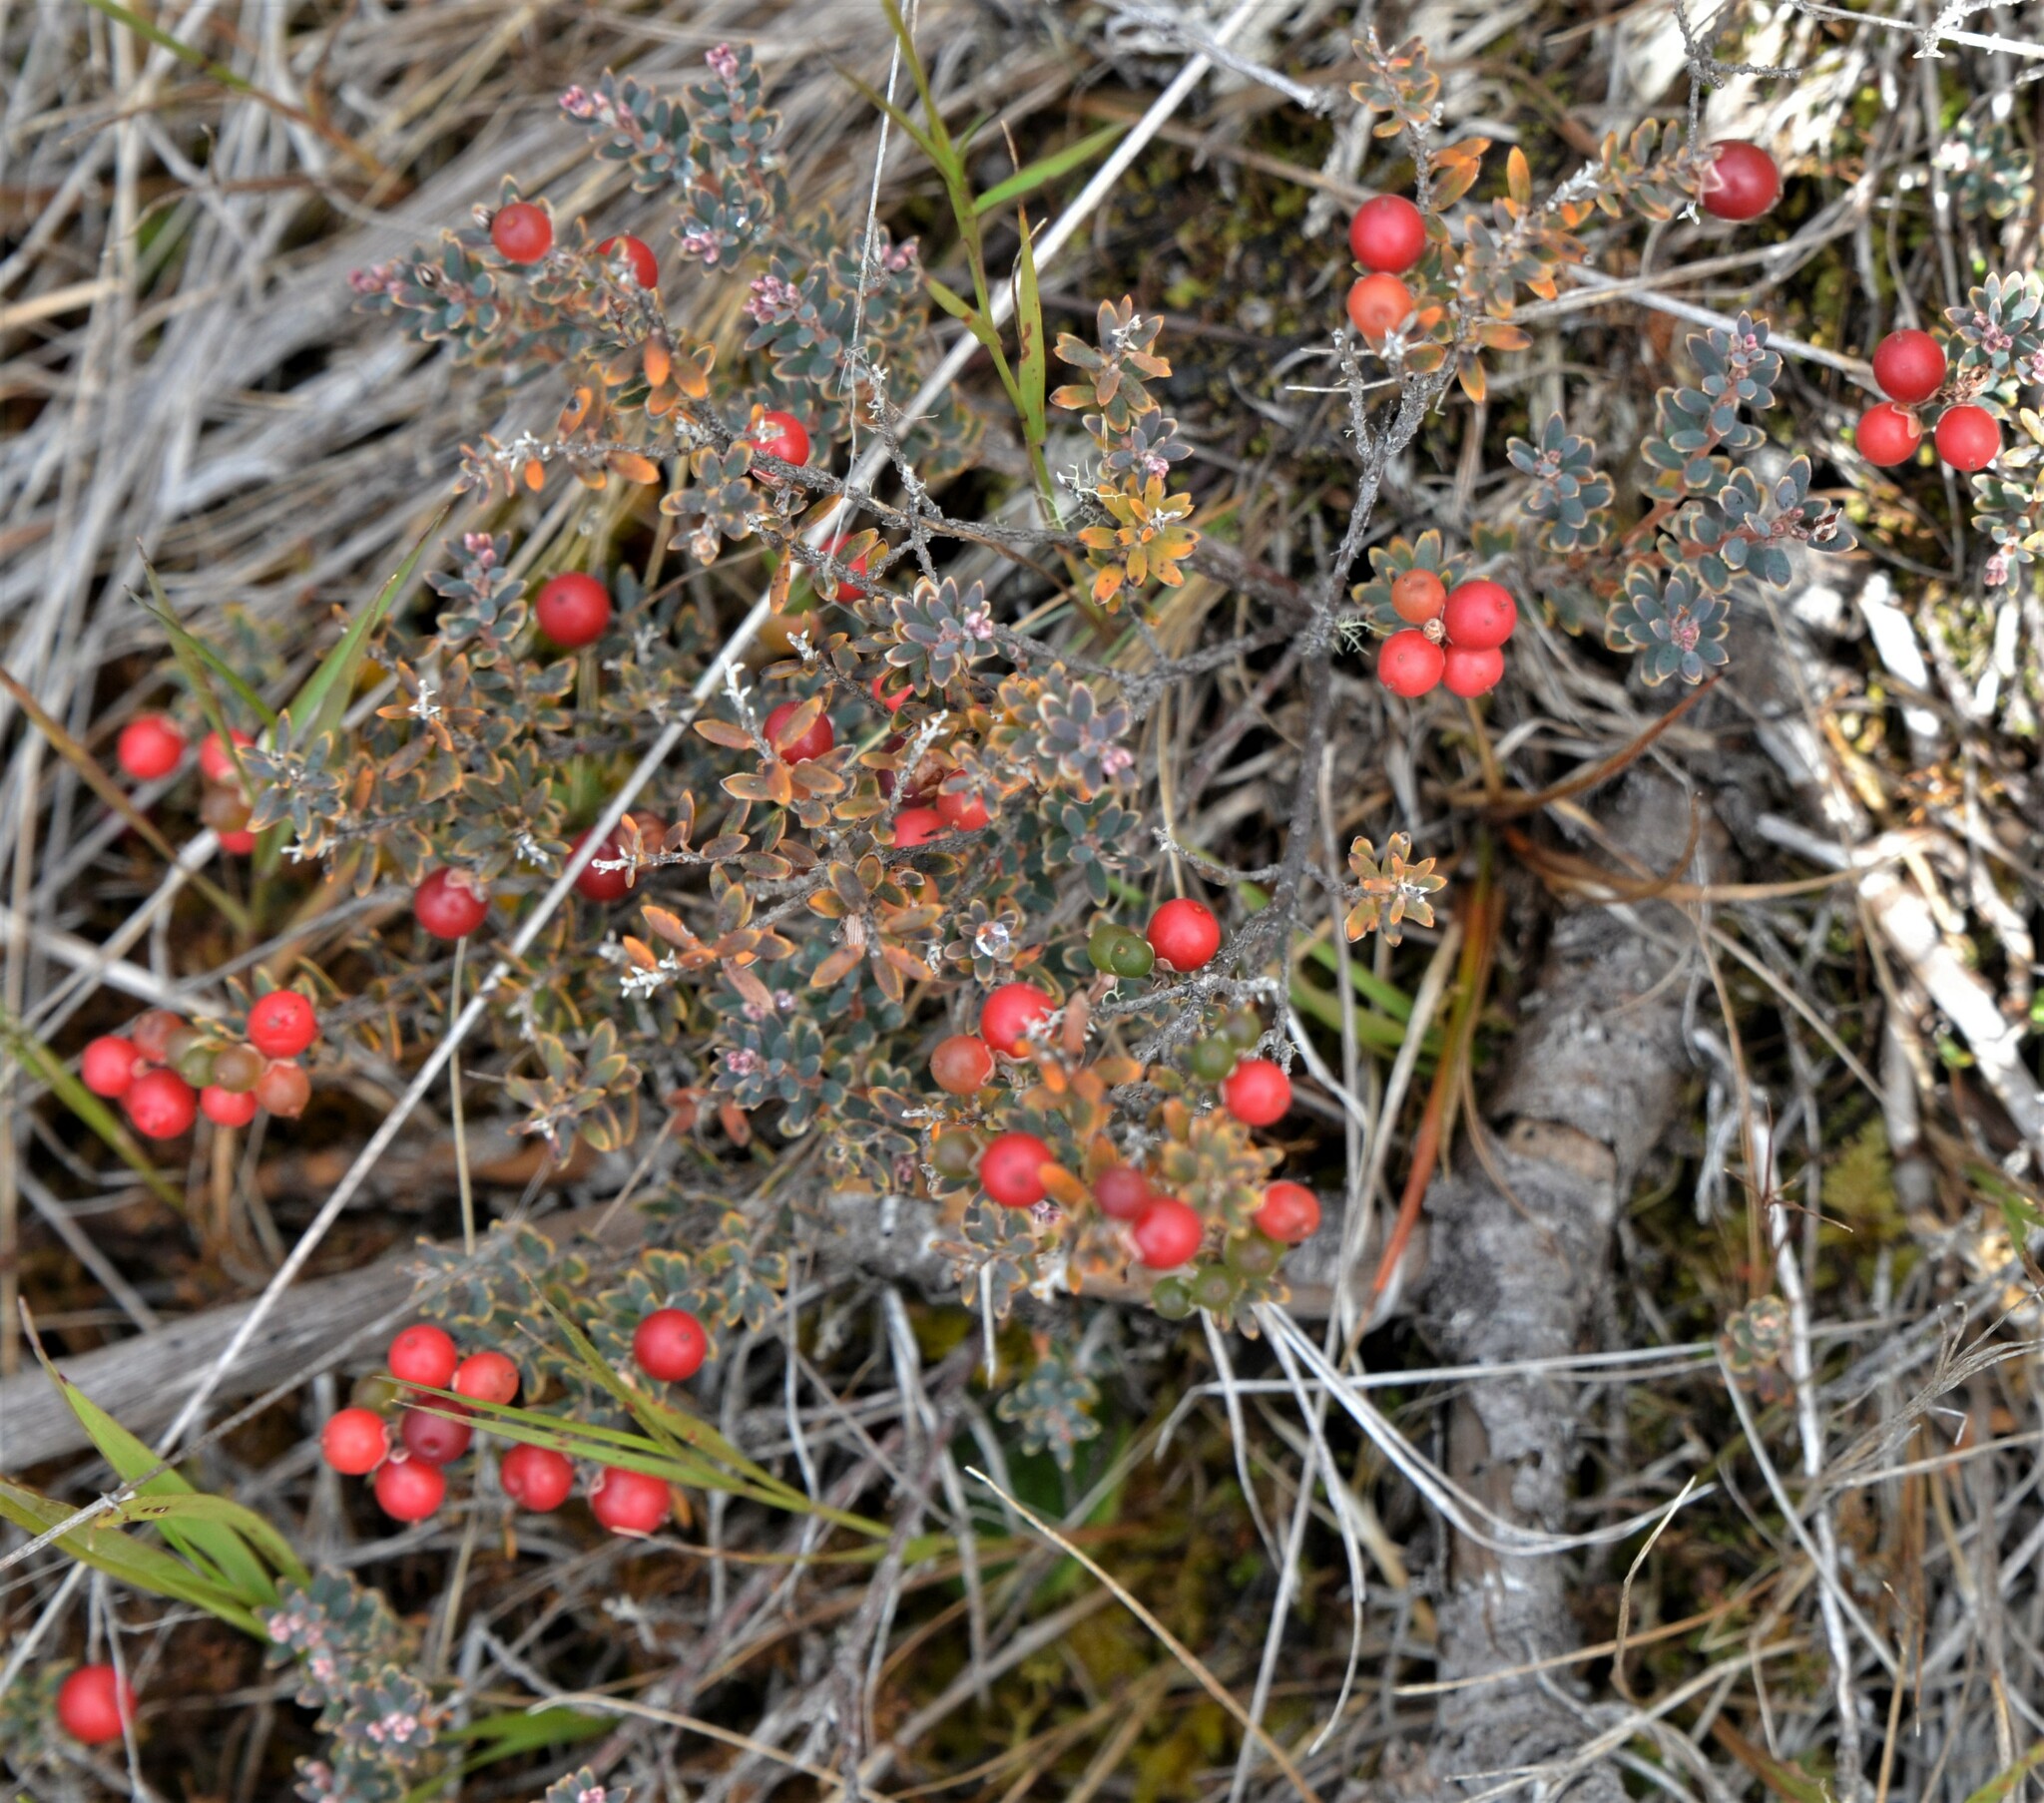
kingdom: Plantae
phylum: Tracheophyta
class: Magnoliopsida
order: Ericales
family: Ericaceae
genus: Acrothamnus
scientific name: Acrothamnus colensoi
